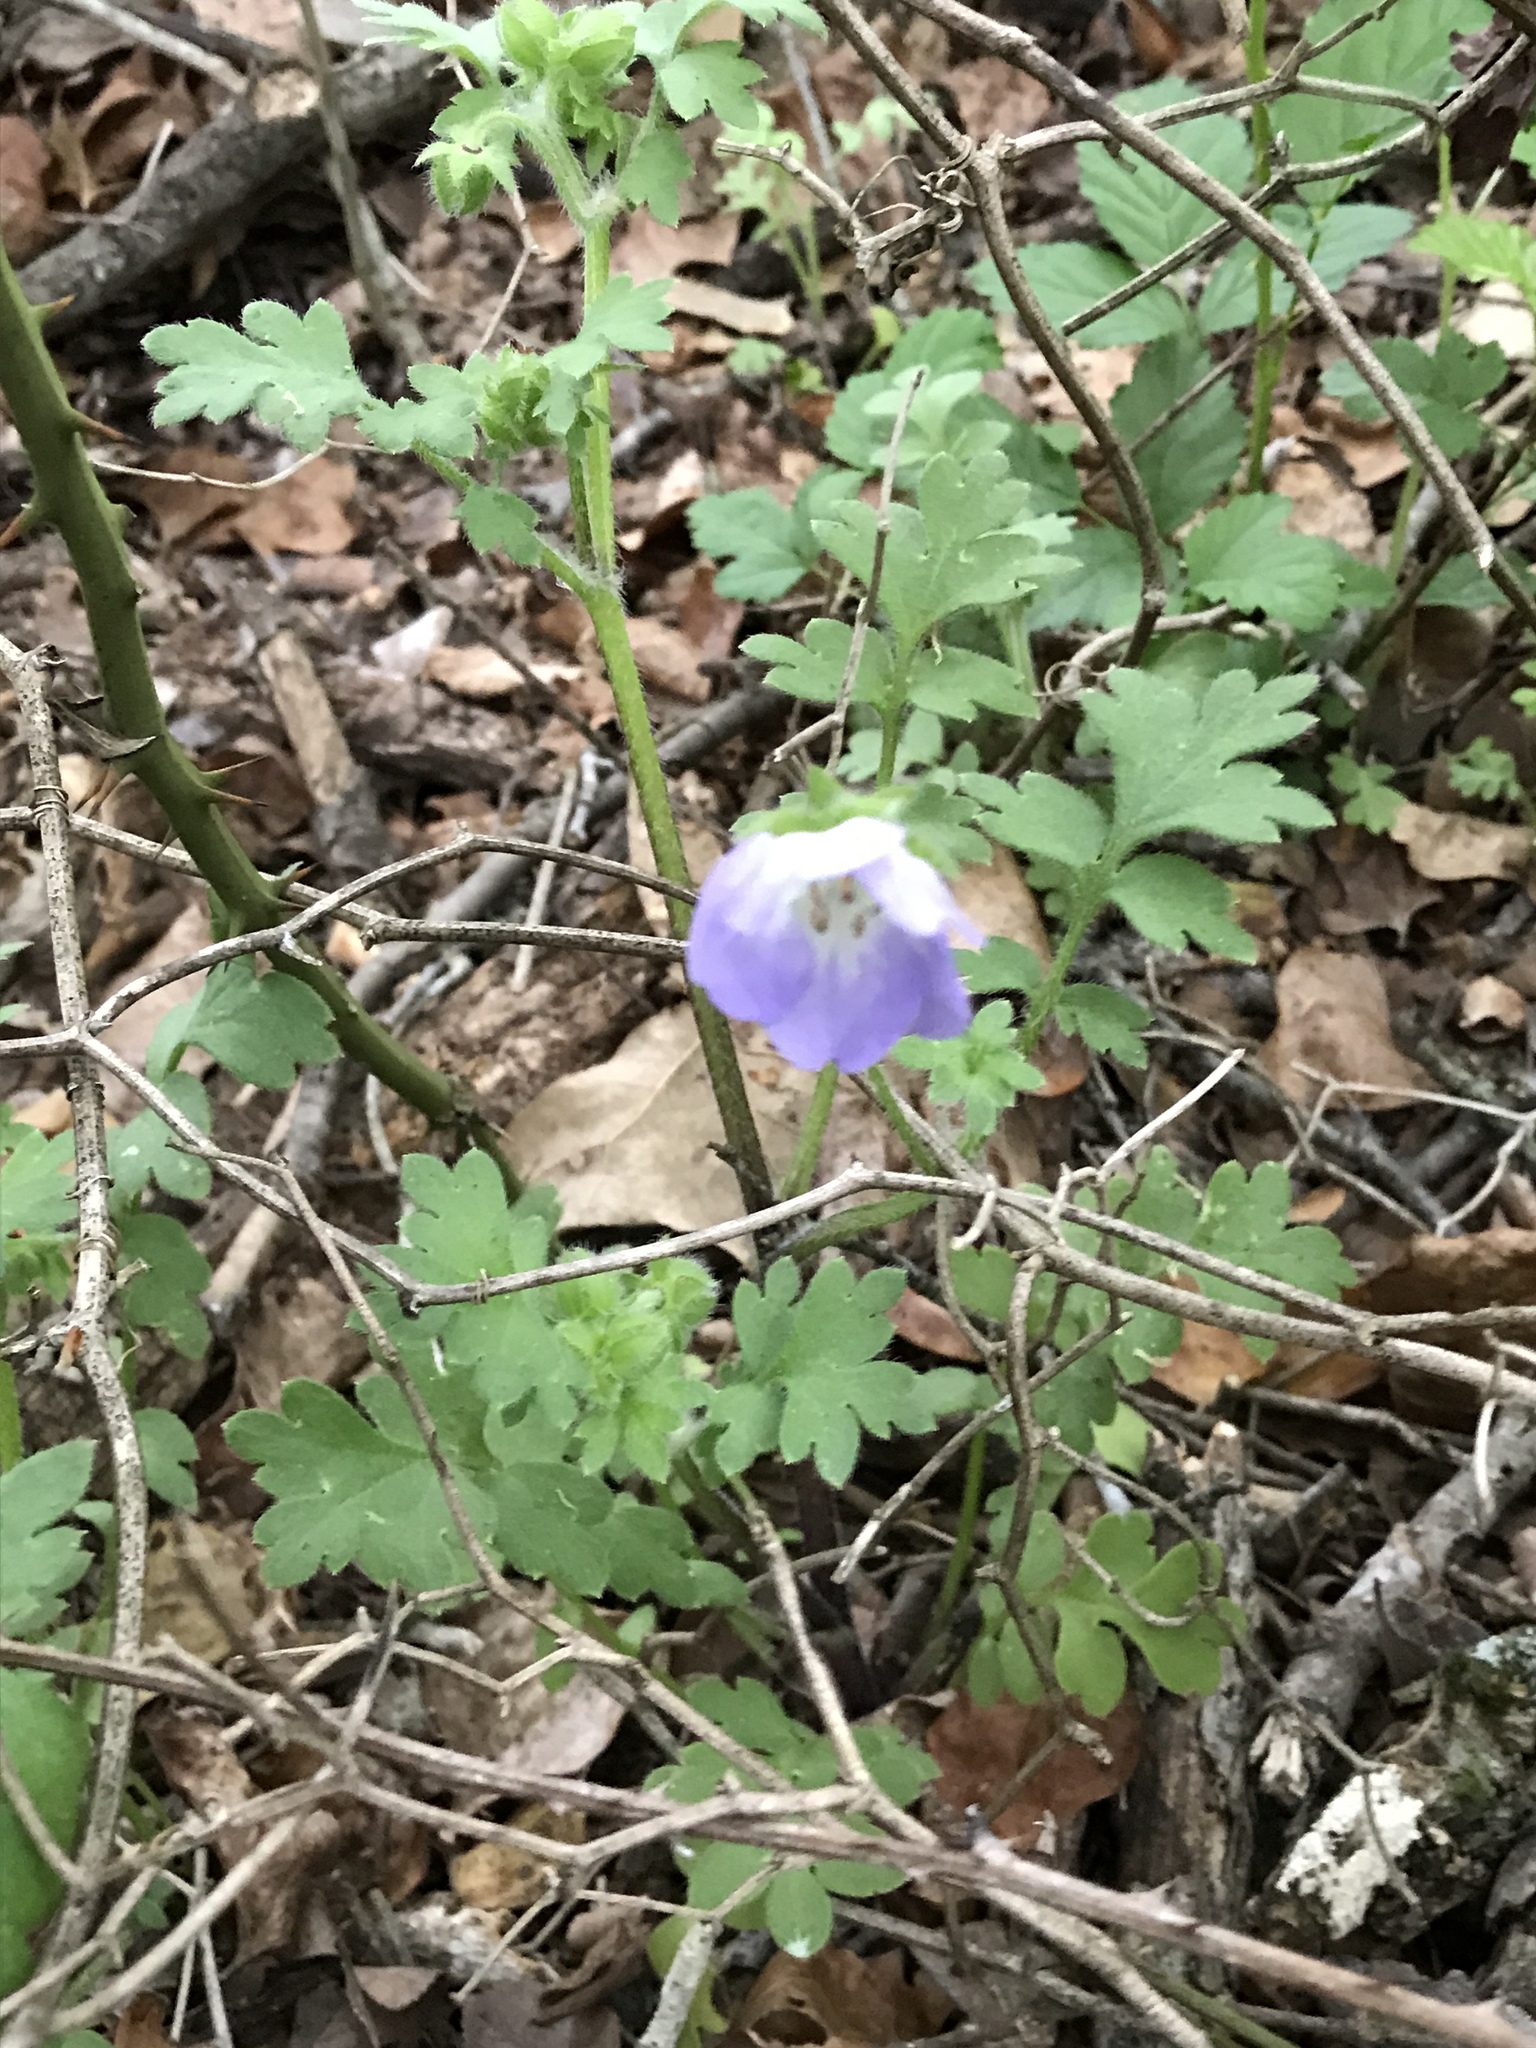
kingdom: Plantae
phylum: Tracheophyta
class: Magnoliopsida
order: Boraginales
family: Hydrophyllaceae
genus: Nemophila
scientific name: Nemophila phacelioides
